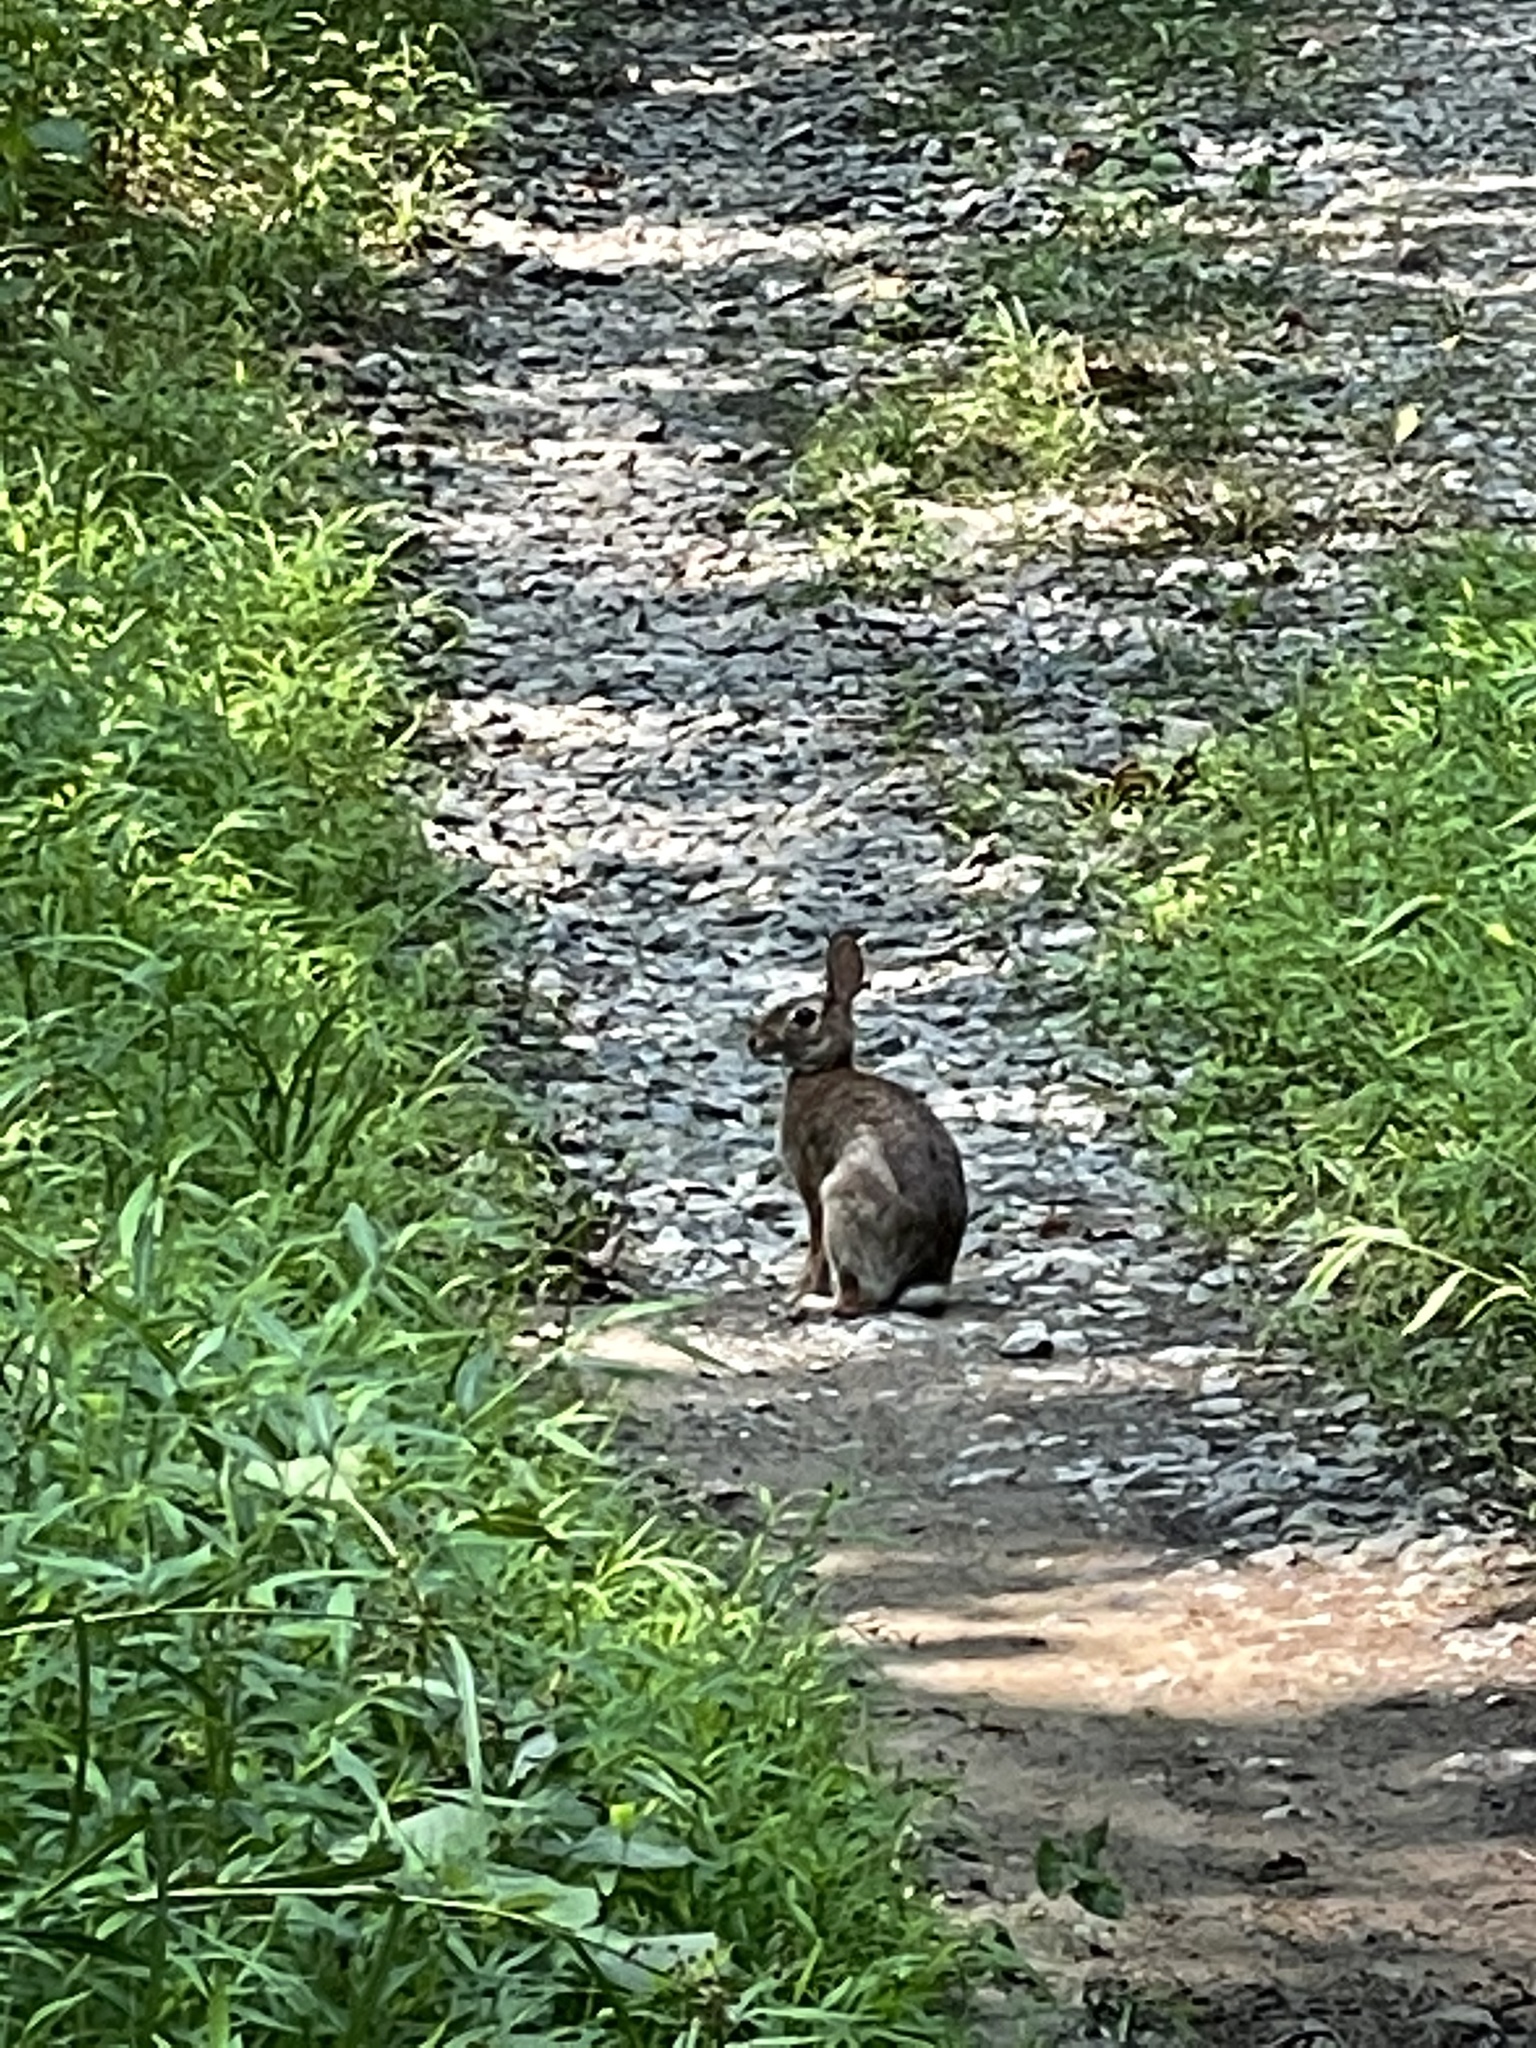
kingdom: Animalia
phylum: Chordata
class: Mammalia
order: Lagomorpha
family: Leporidae
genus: Sylvilagus
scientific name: Sylvilagus floridanus
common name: Eastern cottontail
